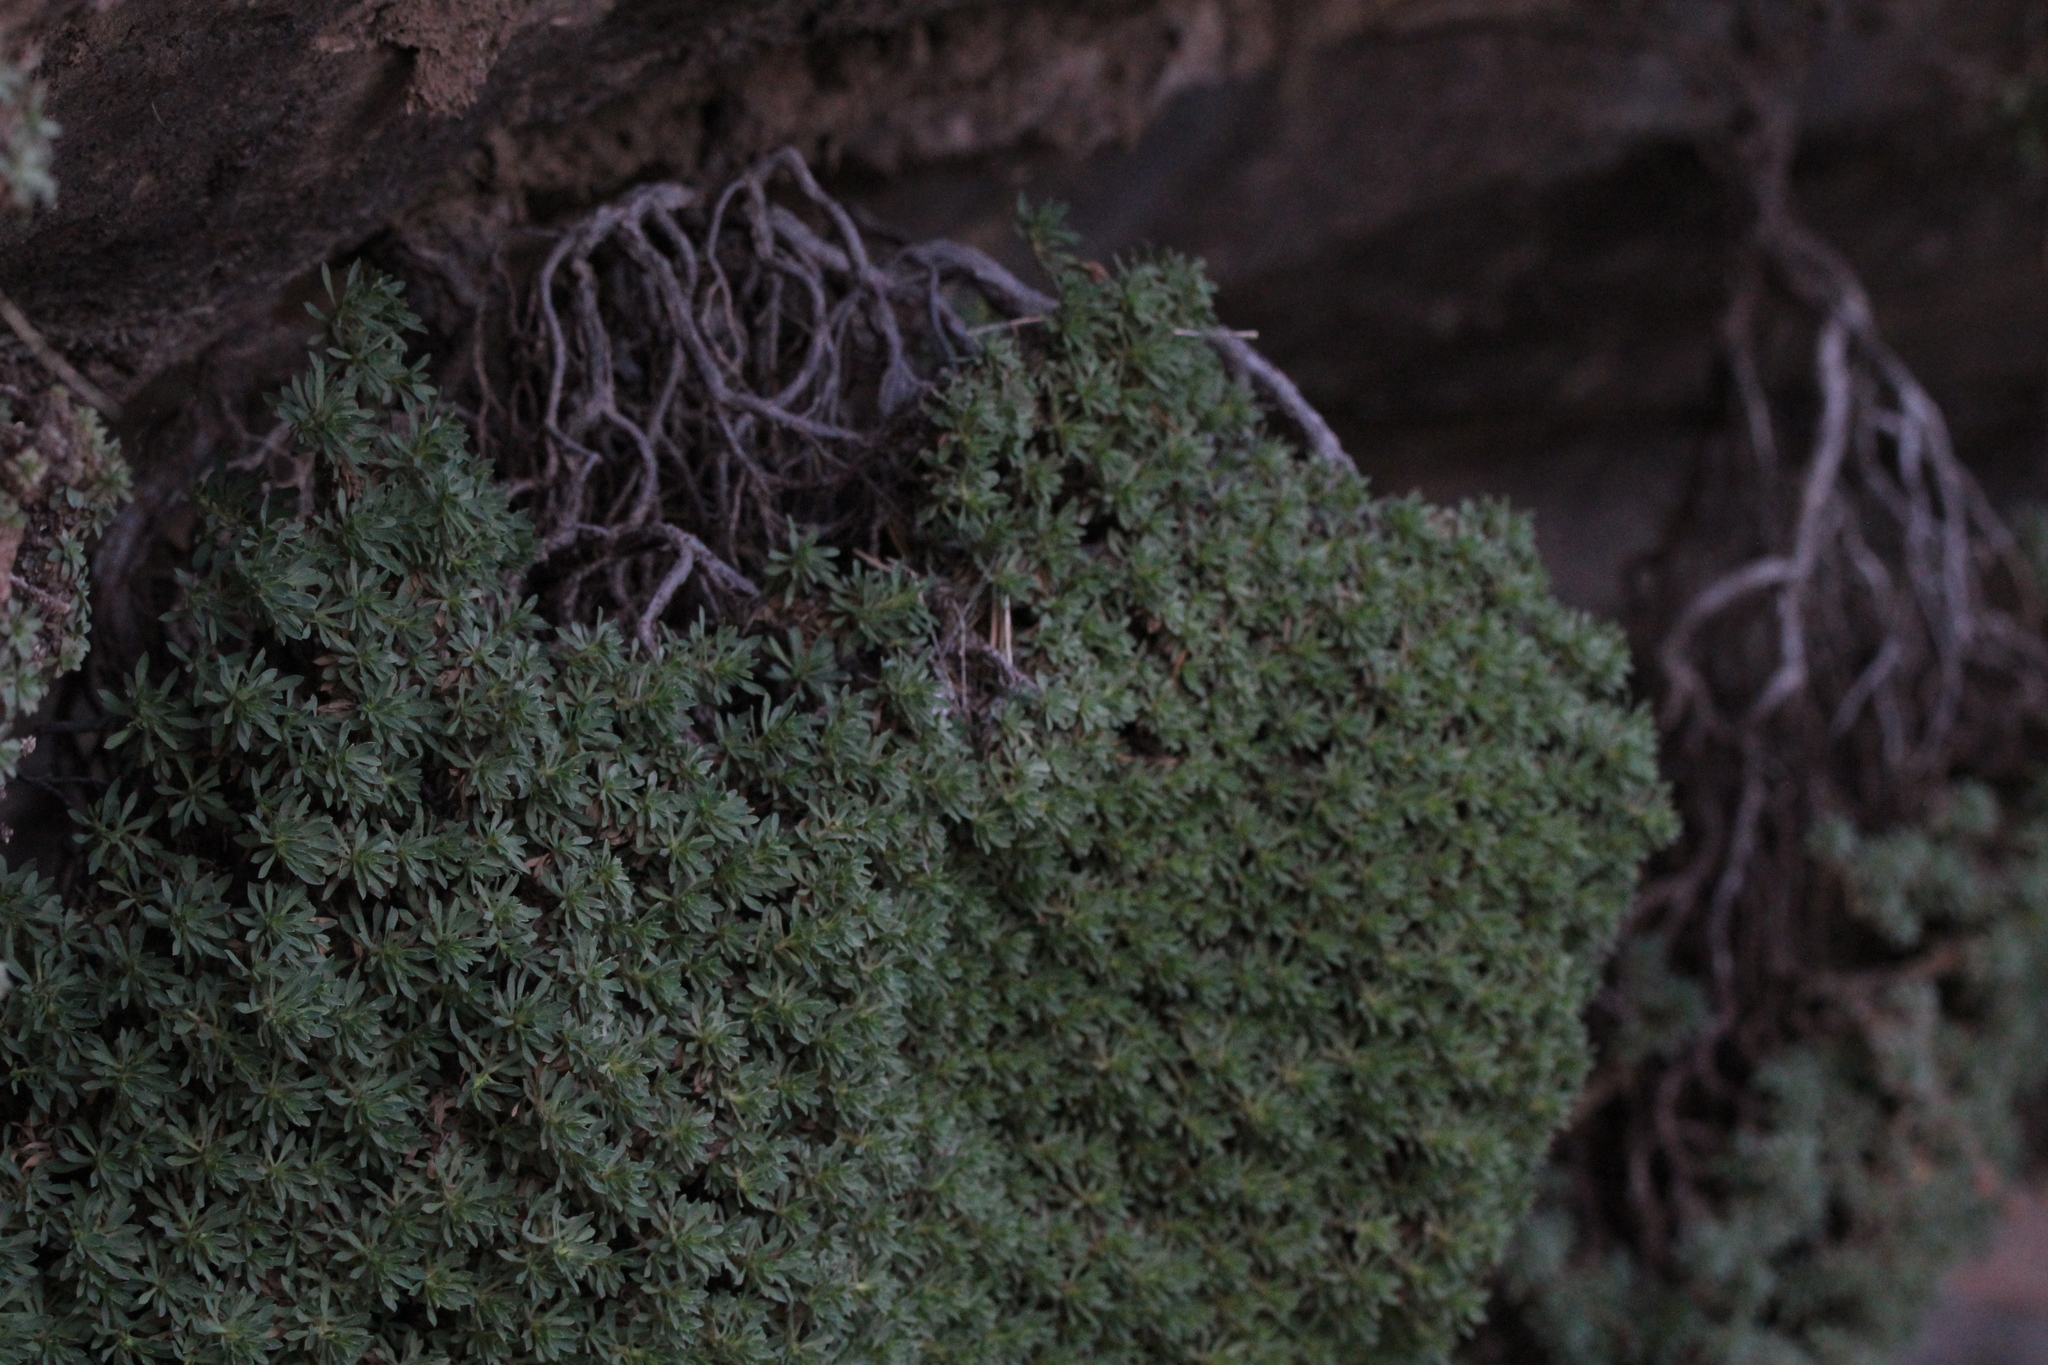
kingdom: Plantae
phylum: Tracheophyta
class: Magnoliopsida
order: Rosales
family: Rosaceae
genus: Petrophytum
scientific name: Petrophytum caespitosum
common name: Mat rockspirea
